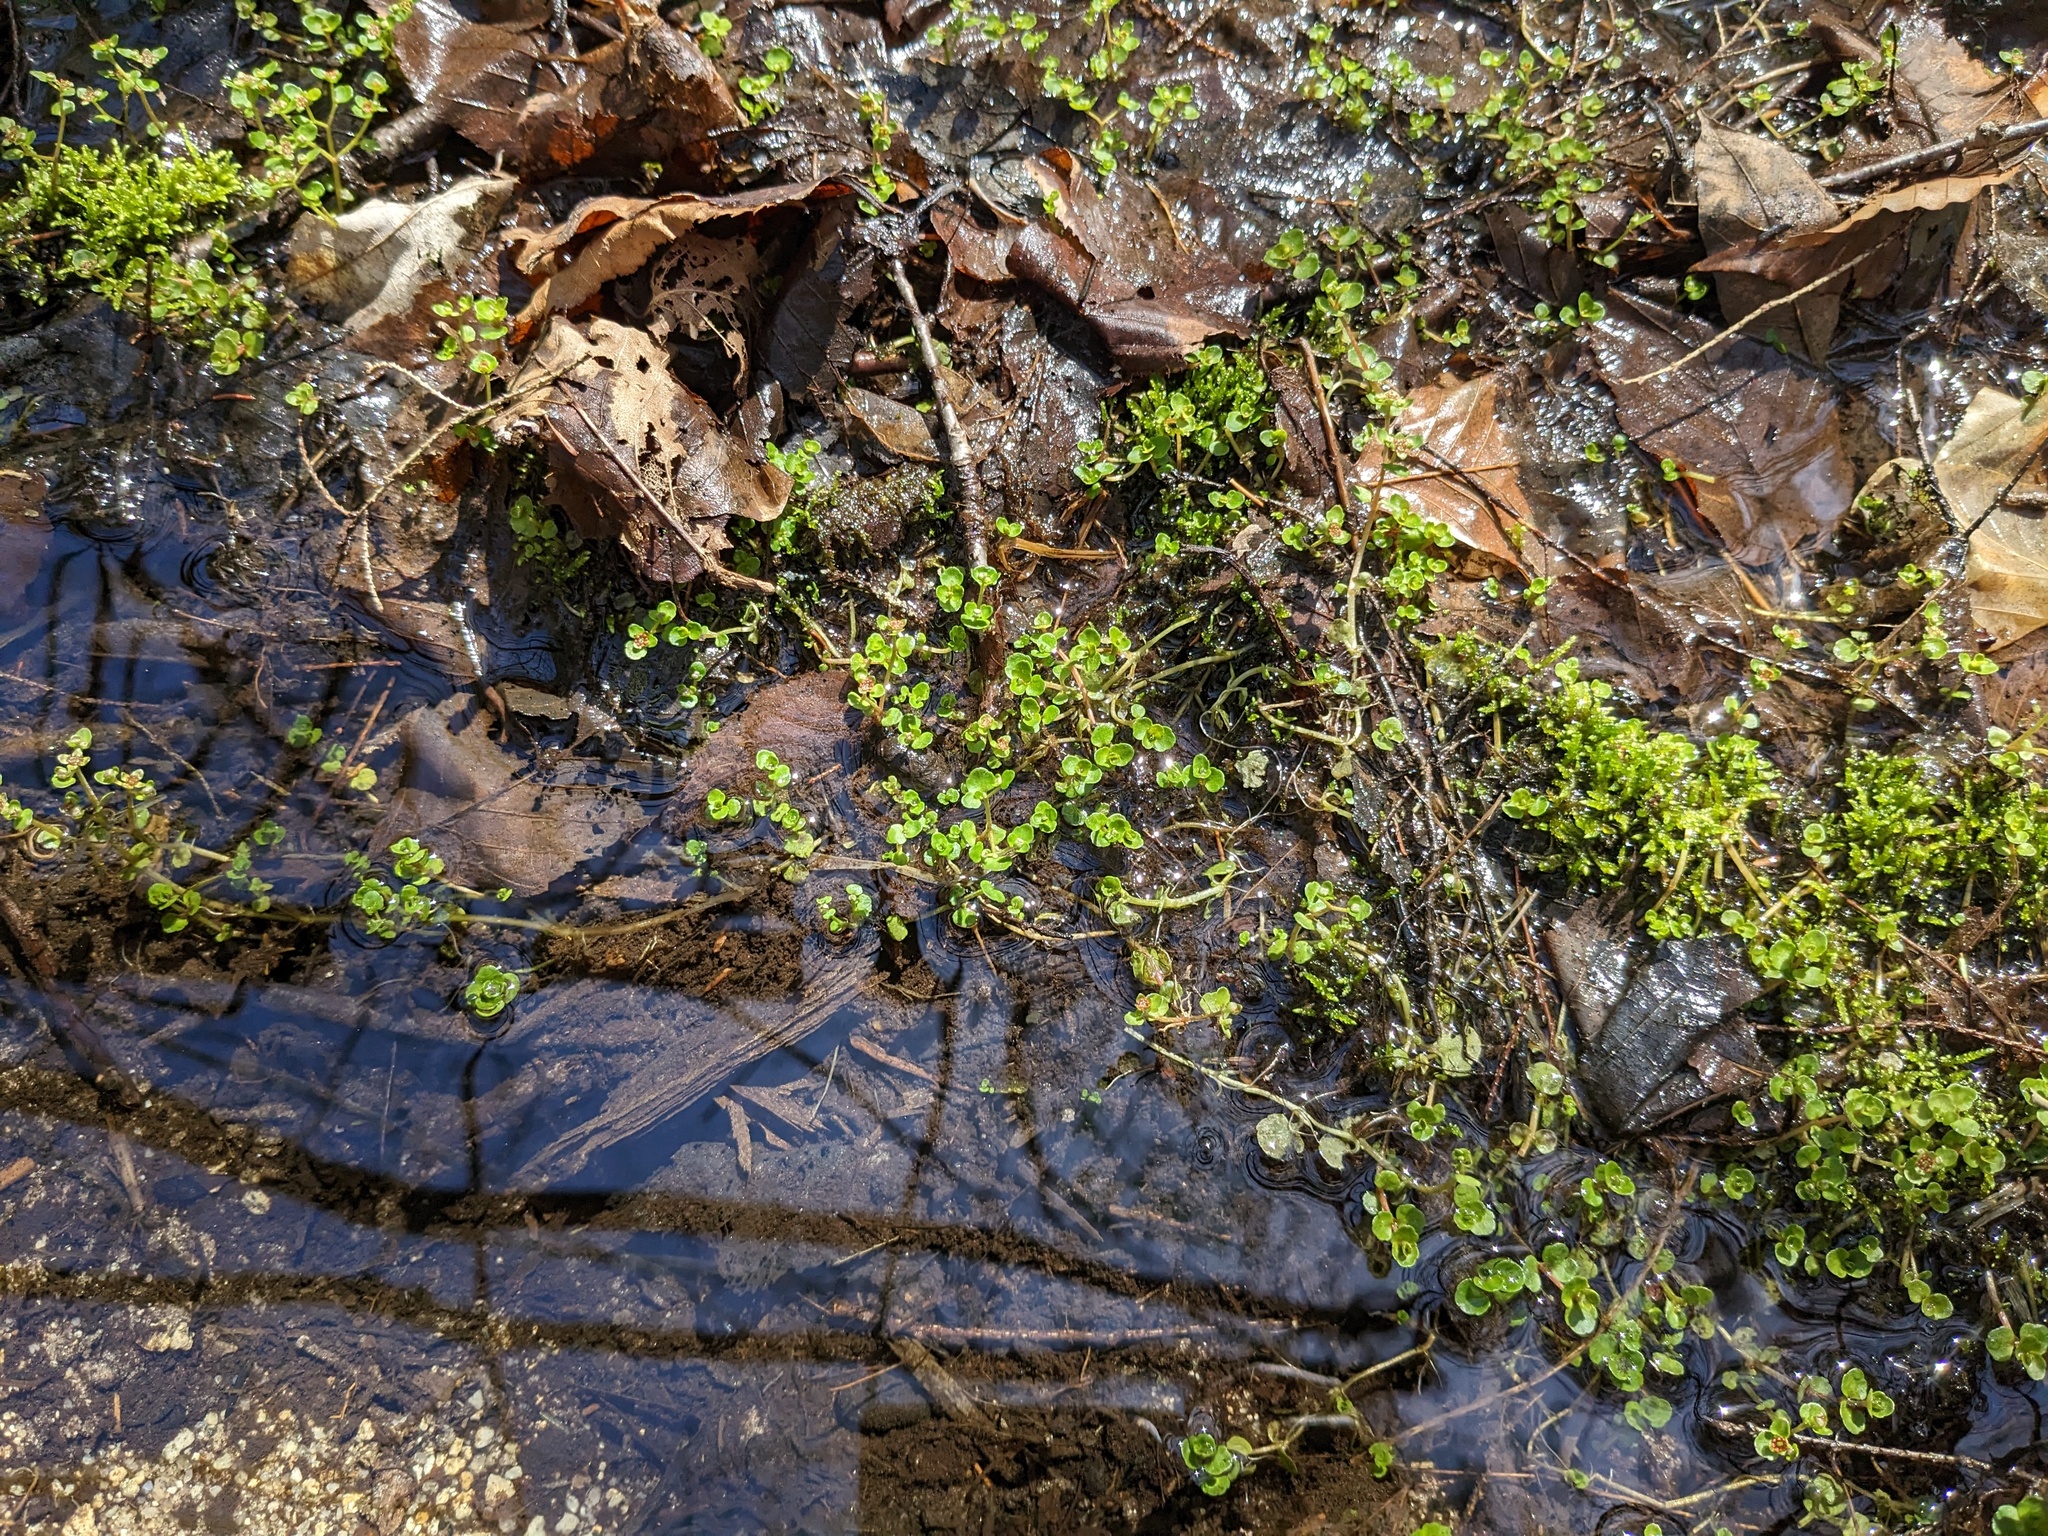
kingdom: Plantae
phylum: Tracheophyta
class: Magnoliopsida
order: Saxifragales
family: Saxifragaceae
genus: Chrysosplenium
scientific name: Chrysosplenium americanum
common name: American golden-saxifrage
